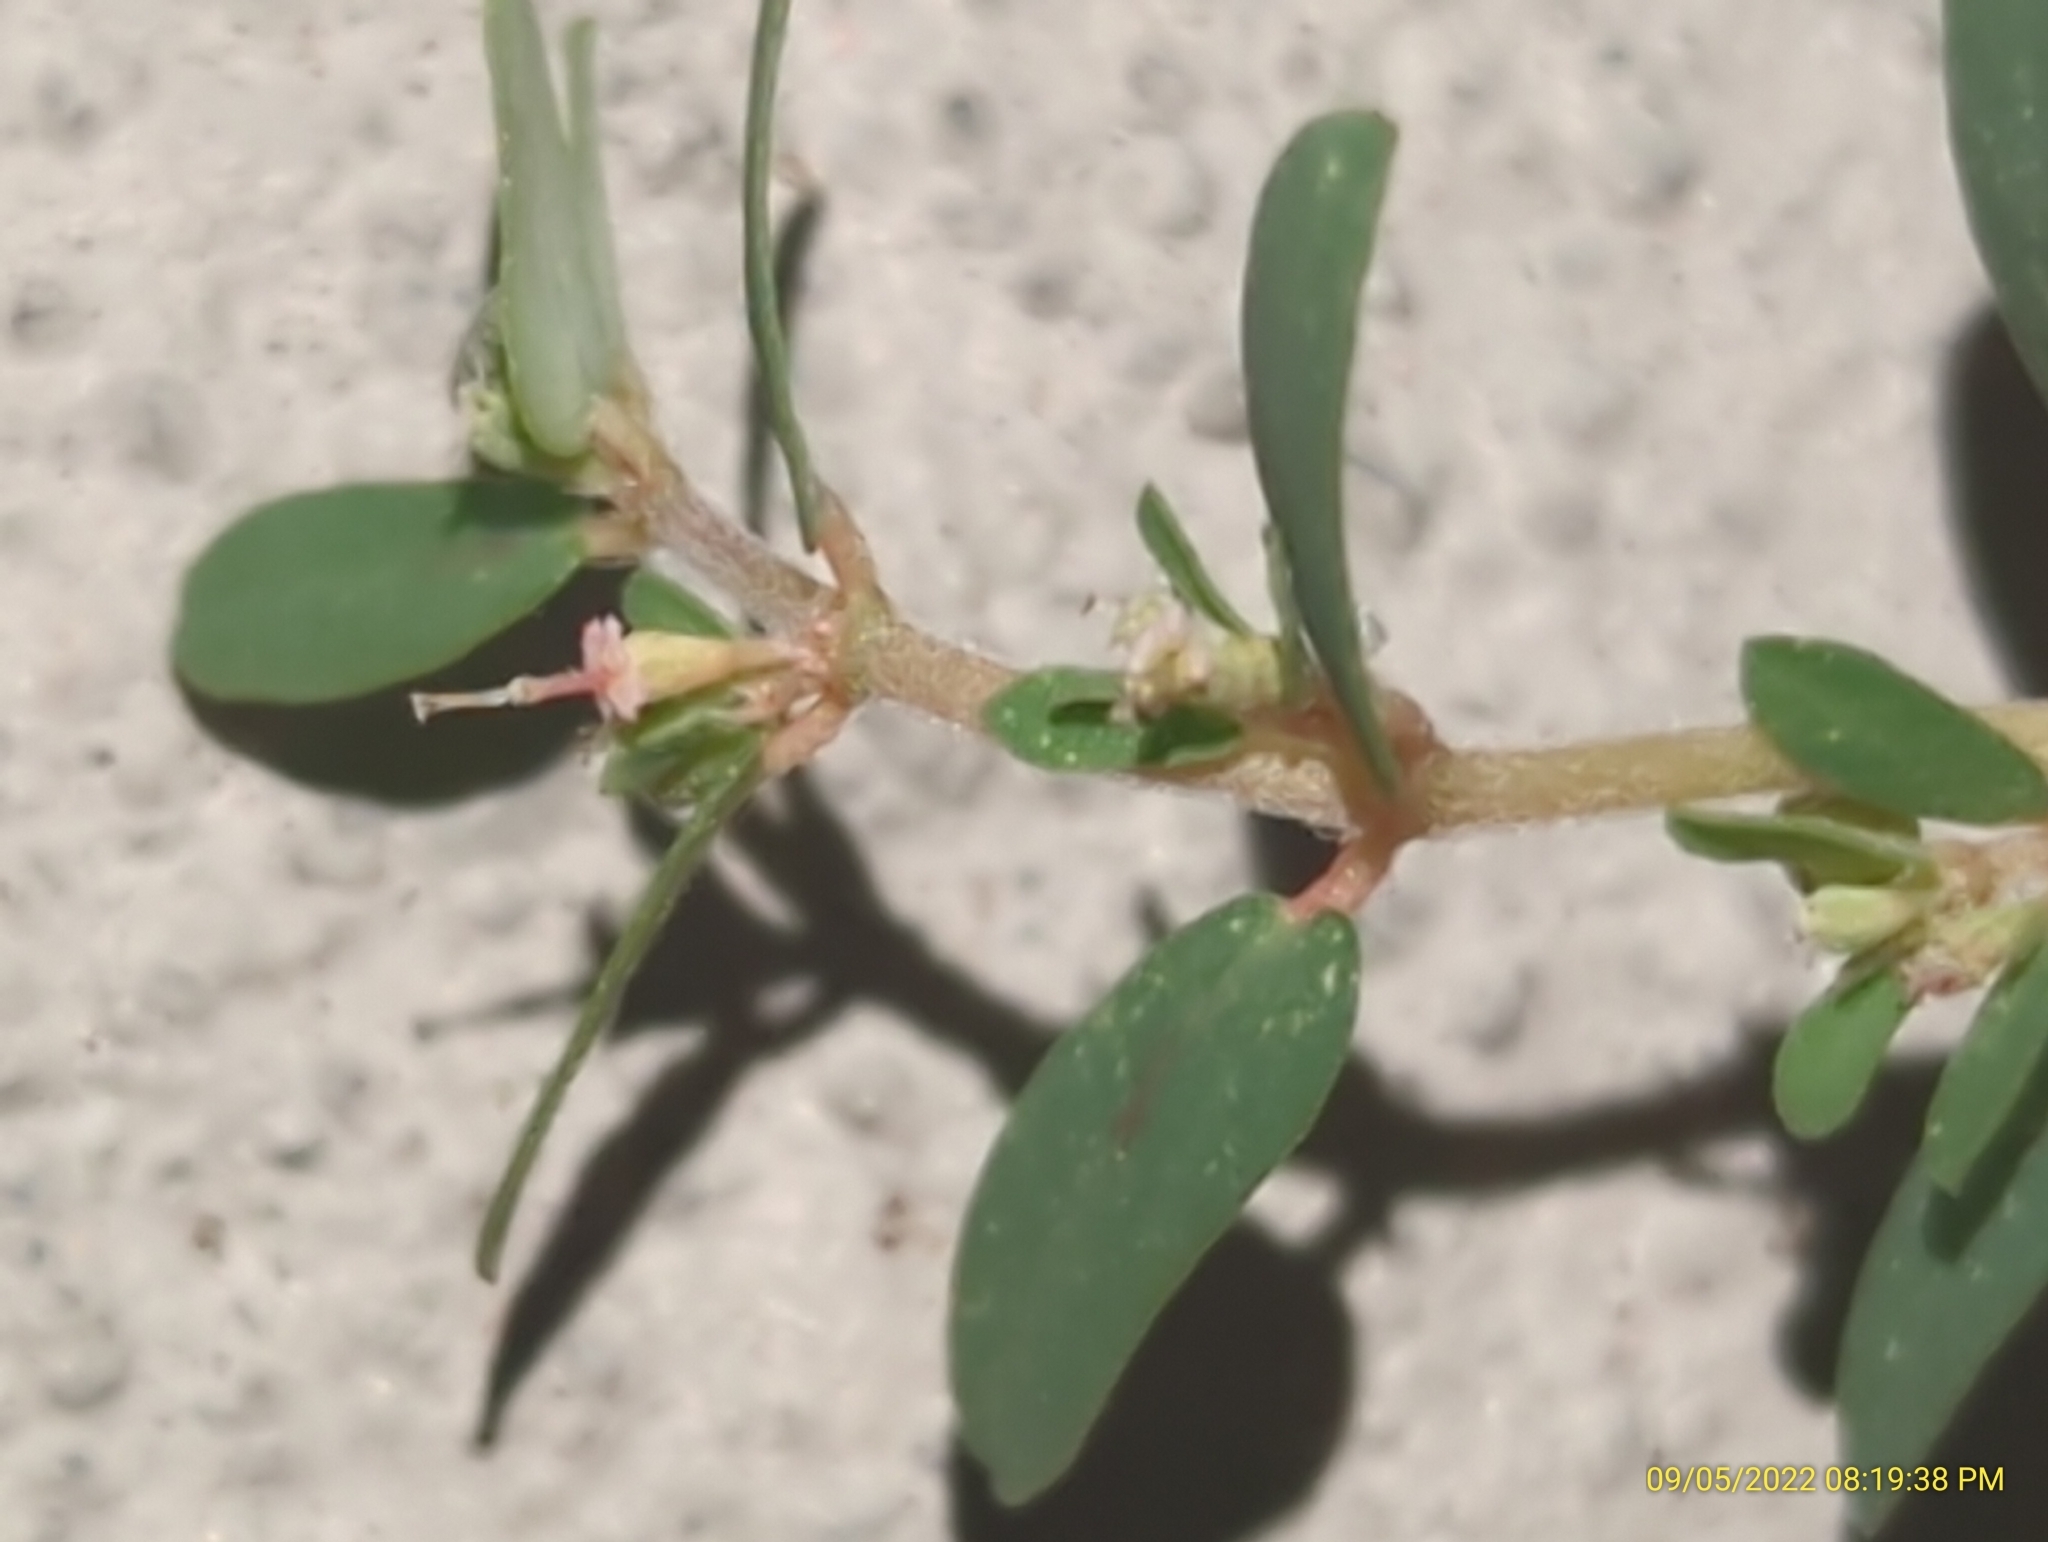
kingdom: Plantae
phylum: Tracheophyta
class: Magnoliopsida
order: Malpighiales
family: Euphorbiaceae
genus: Euphorbia
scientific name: Euphorbia maculata
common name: Spotted spurge
